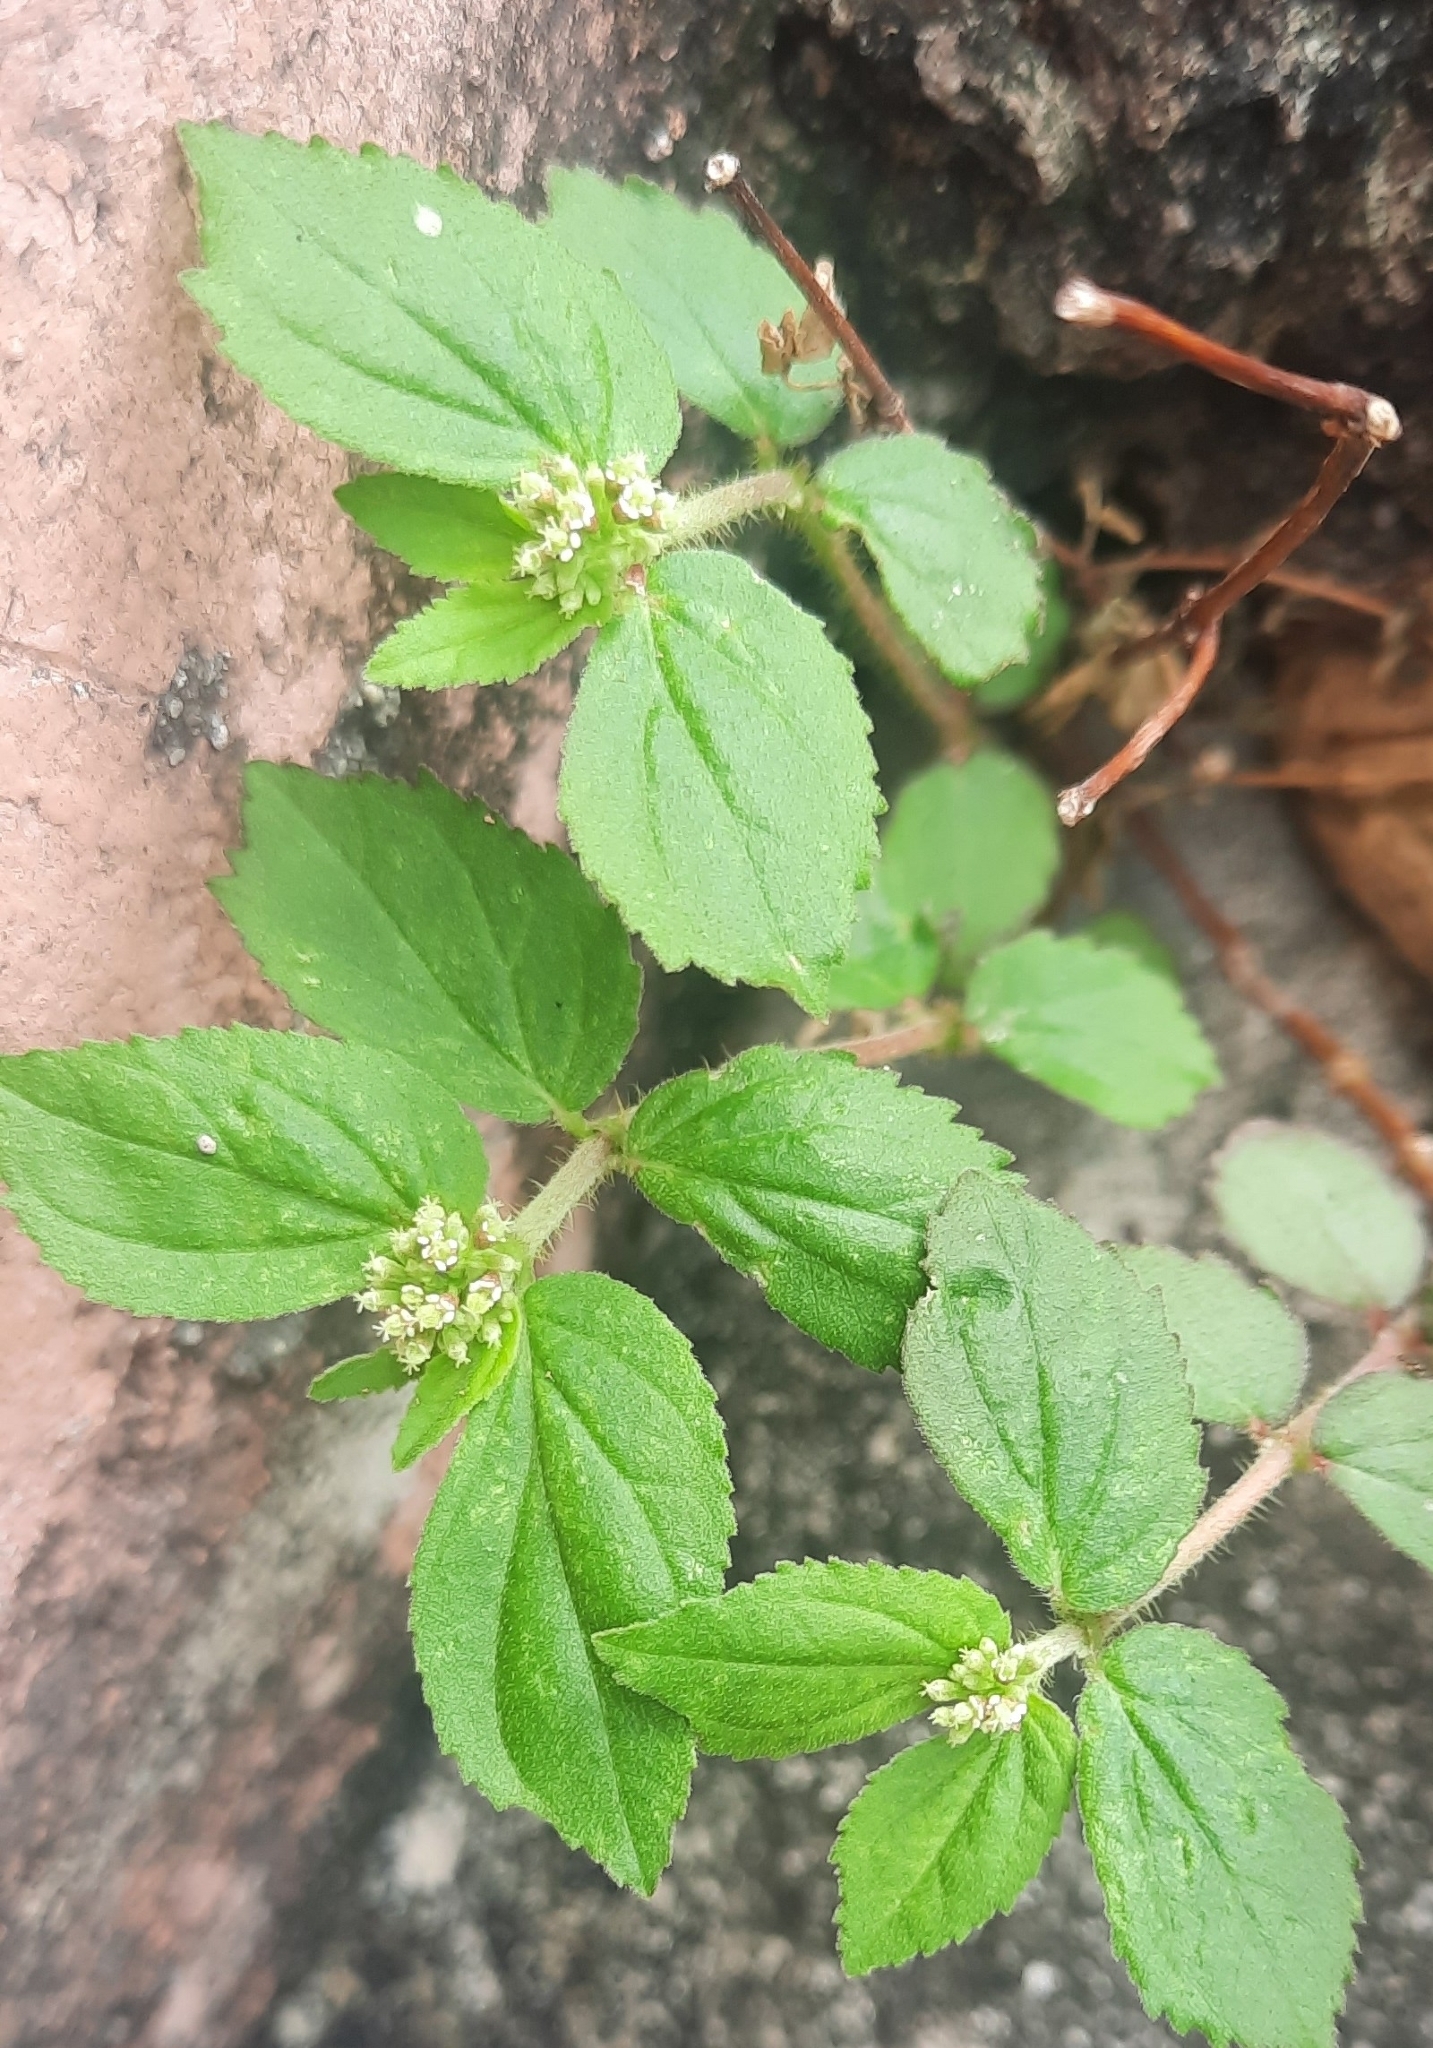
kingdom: Plantae
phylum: Tracheophyta
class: Magnoliopsida
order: Malpighiales
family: Euphorbiaceae
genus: Euphorbia
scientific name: Euphorbia hirta
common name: Pillpod sandmat
